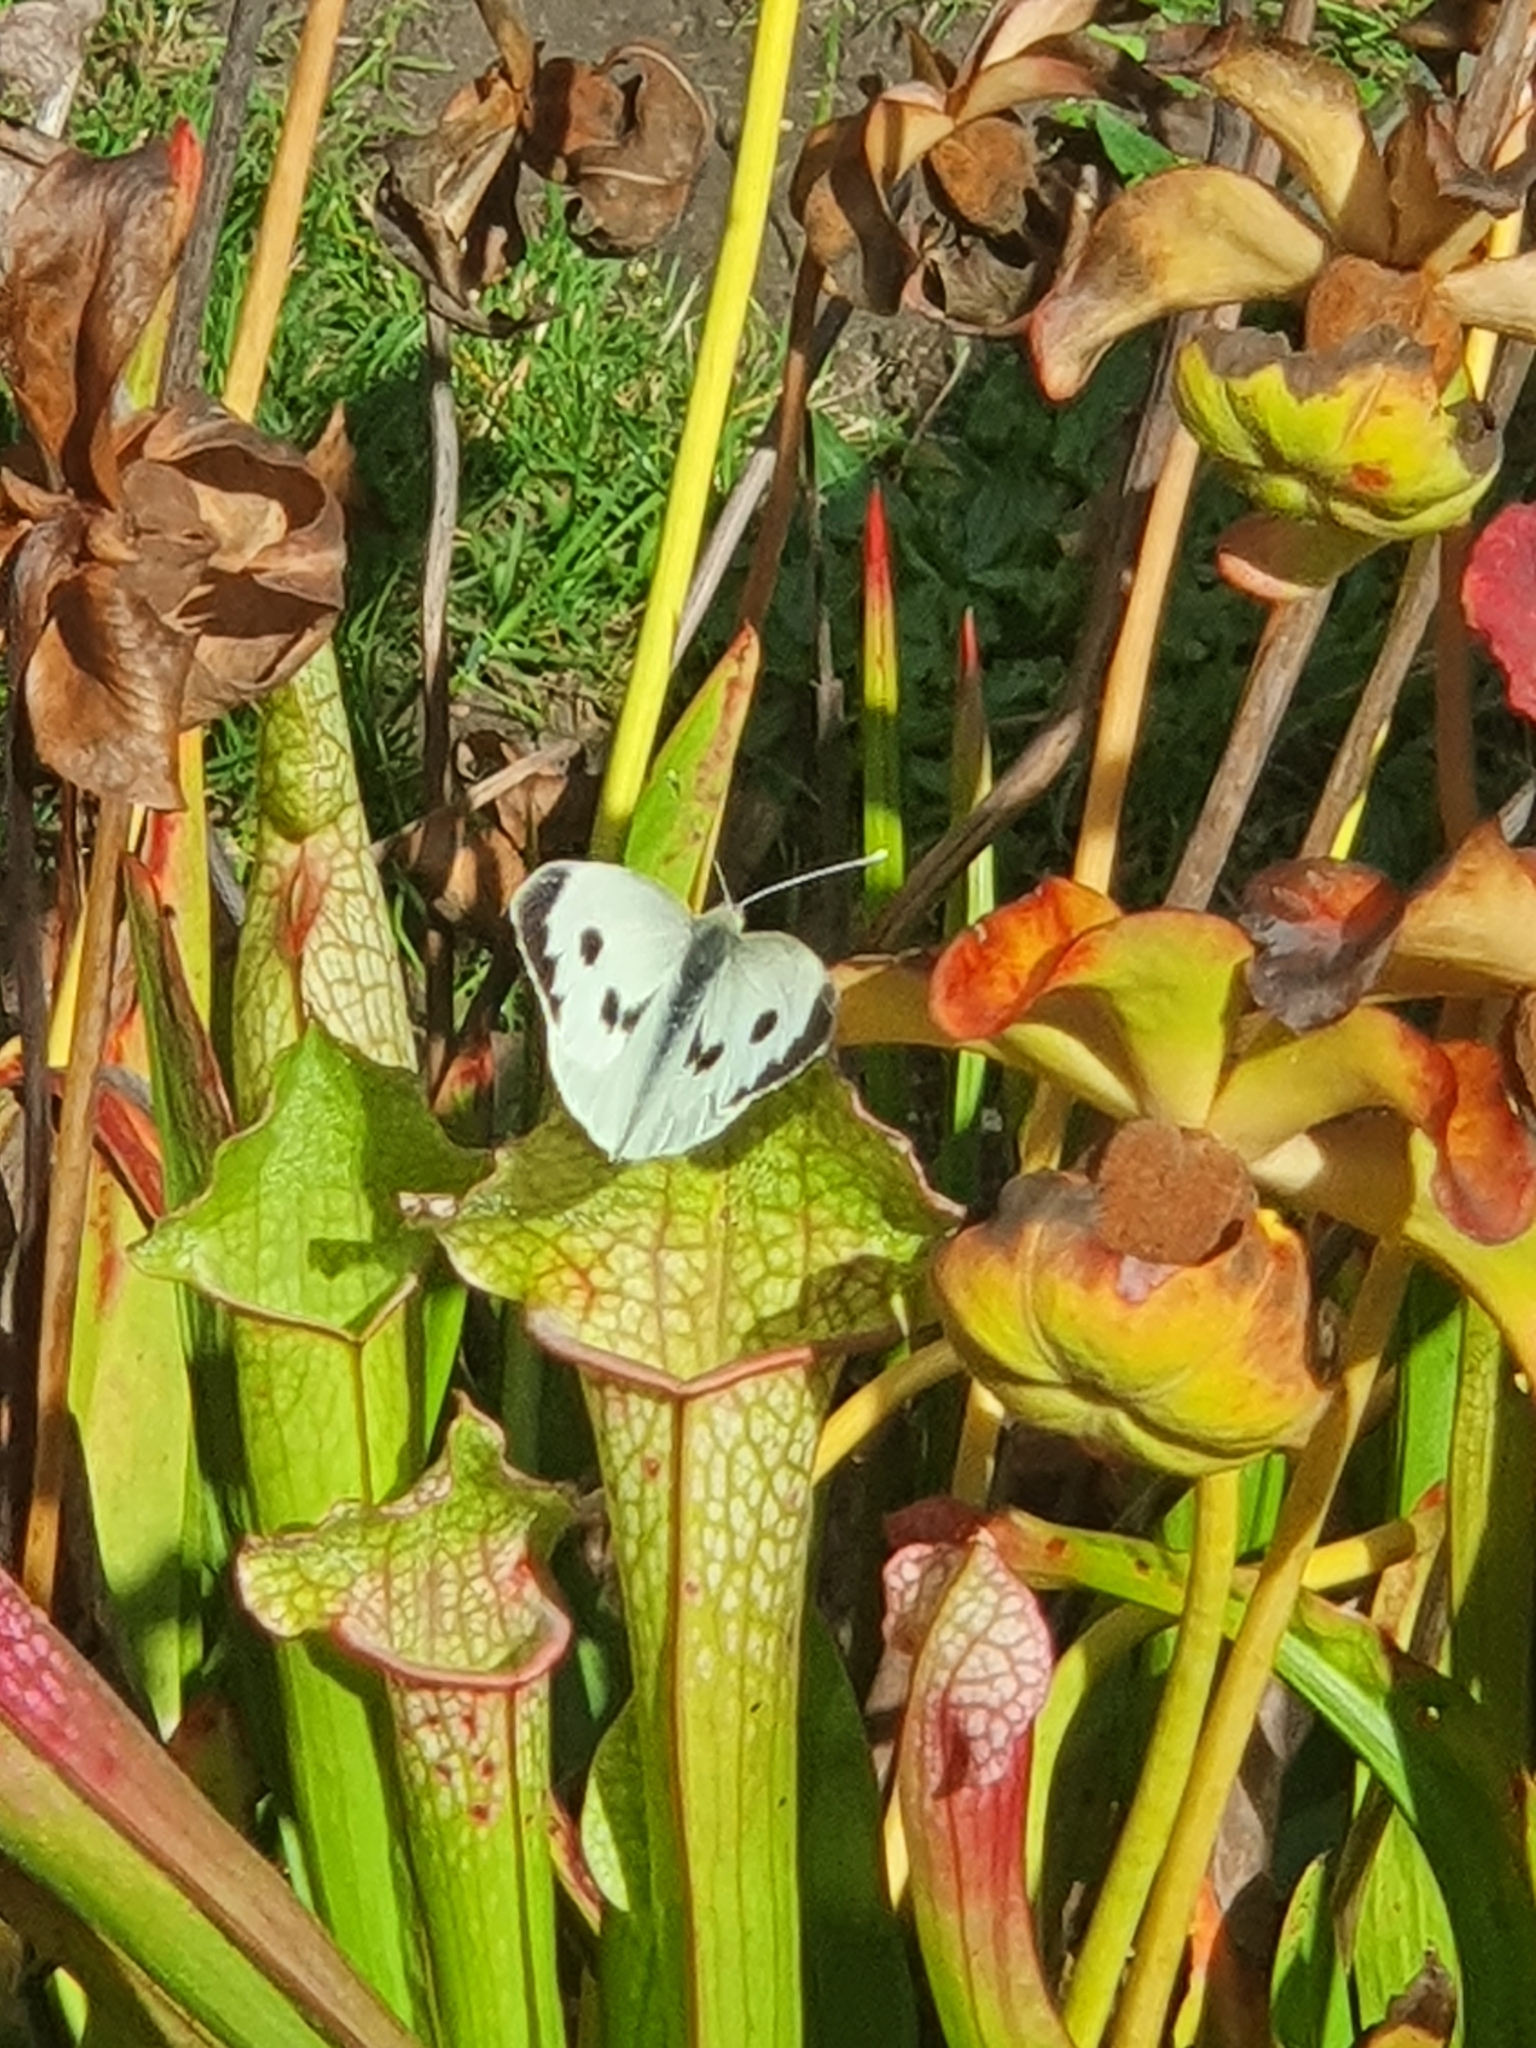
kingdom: Animalia
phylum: Arthropoda
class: Insecta
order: Lepidoptera
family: Pieridae
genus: Pieris
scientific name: Pieris brassicae
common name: Large white
